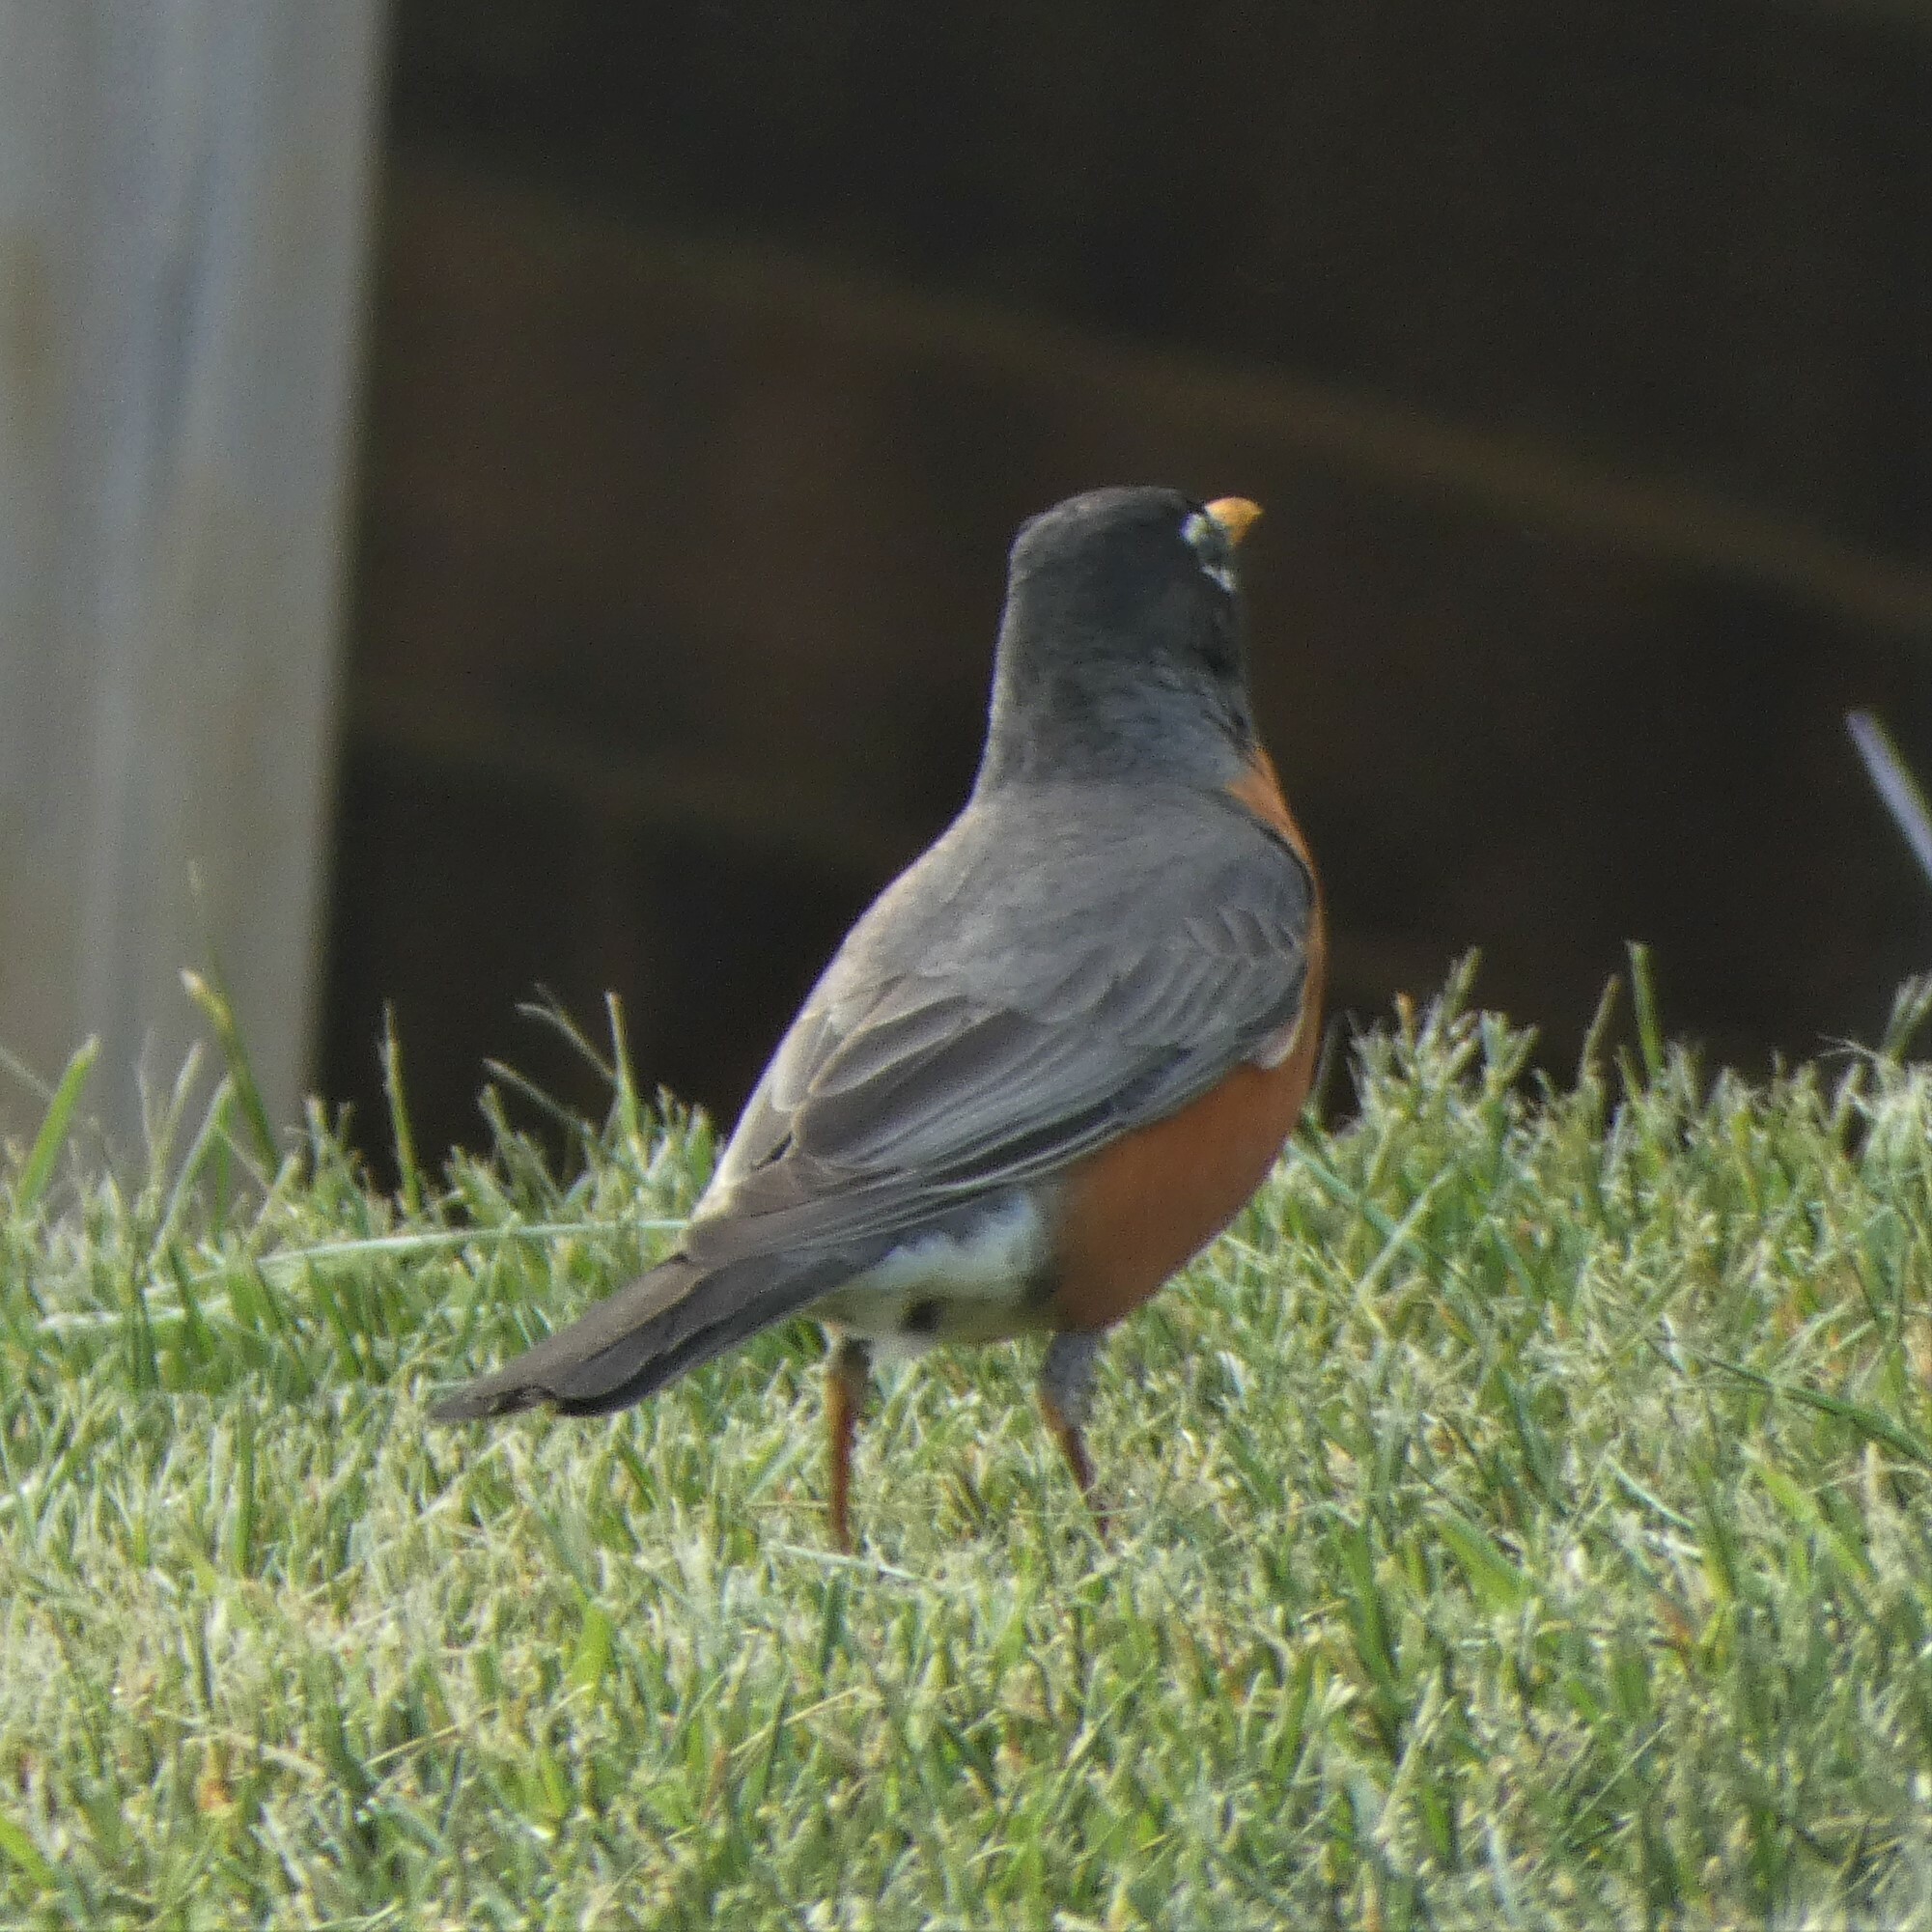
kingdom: Animalia
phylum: Chordata
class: Aves
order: Passeriformes
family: Turdidae
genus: Turdus
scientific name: Turdus migratorius
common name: American robin
